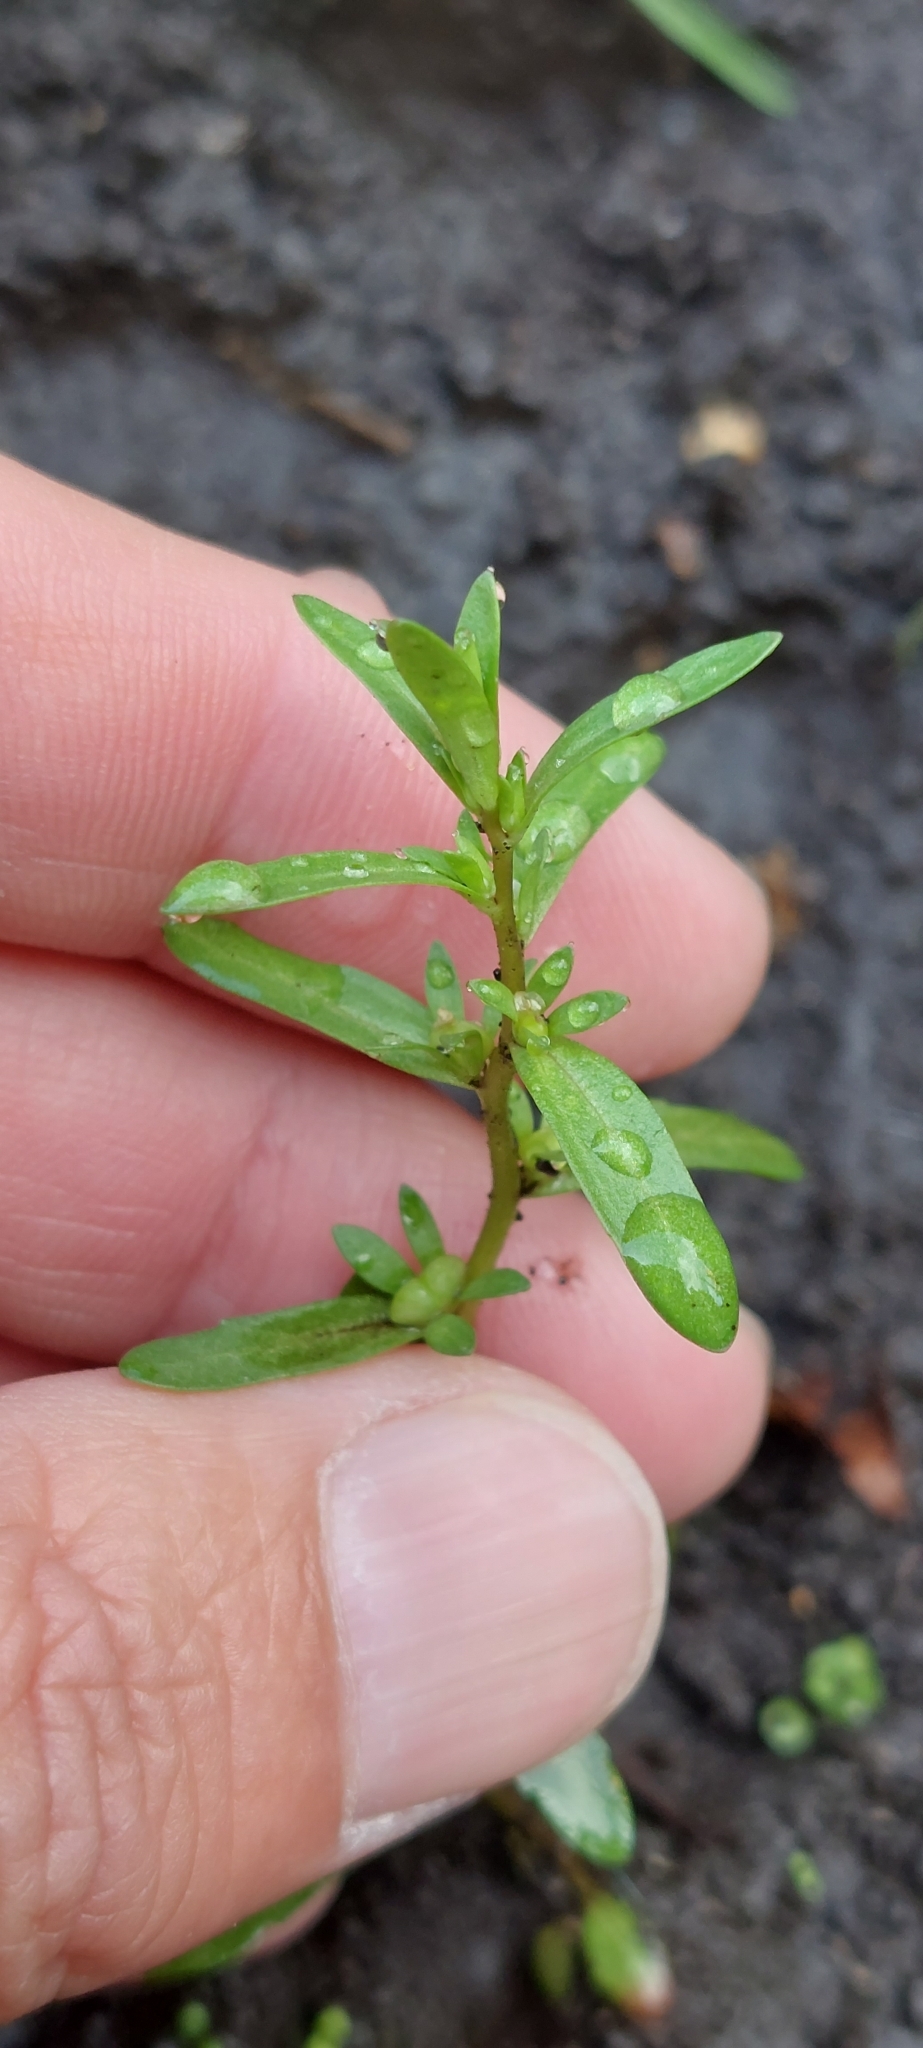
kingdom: Plantae
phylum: Tracheophyta
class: Magnoliopsida
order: Lamiales
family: Plantaginaceae
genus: Veronica
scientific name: Veronica peregrina
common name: Neckweed
